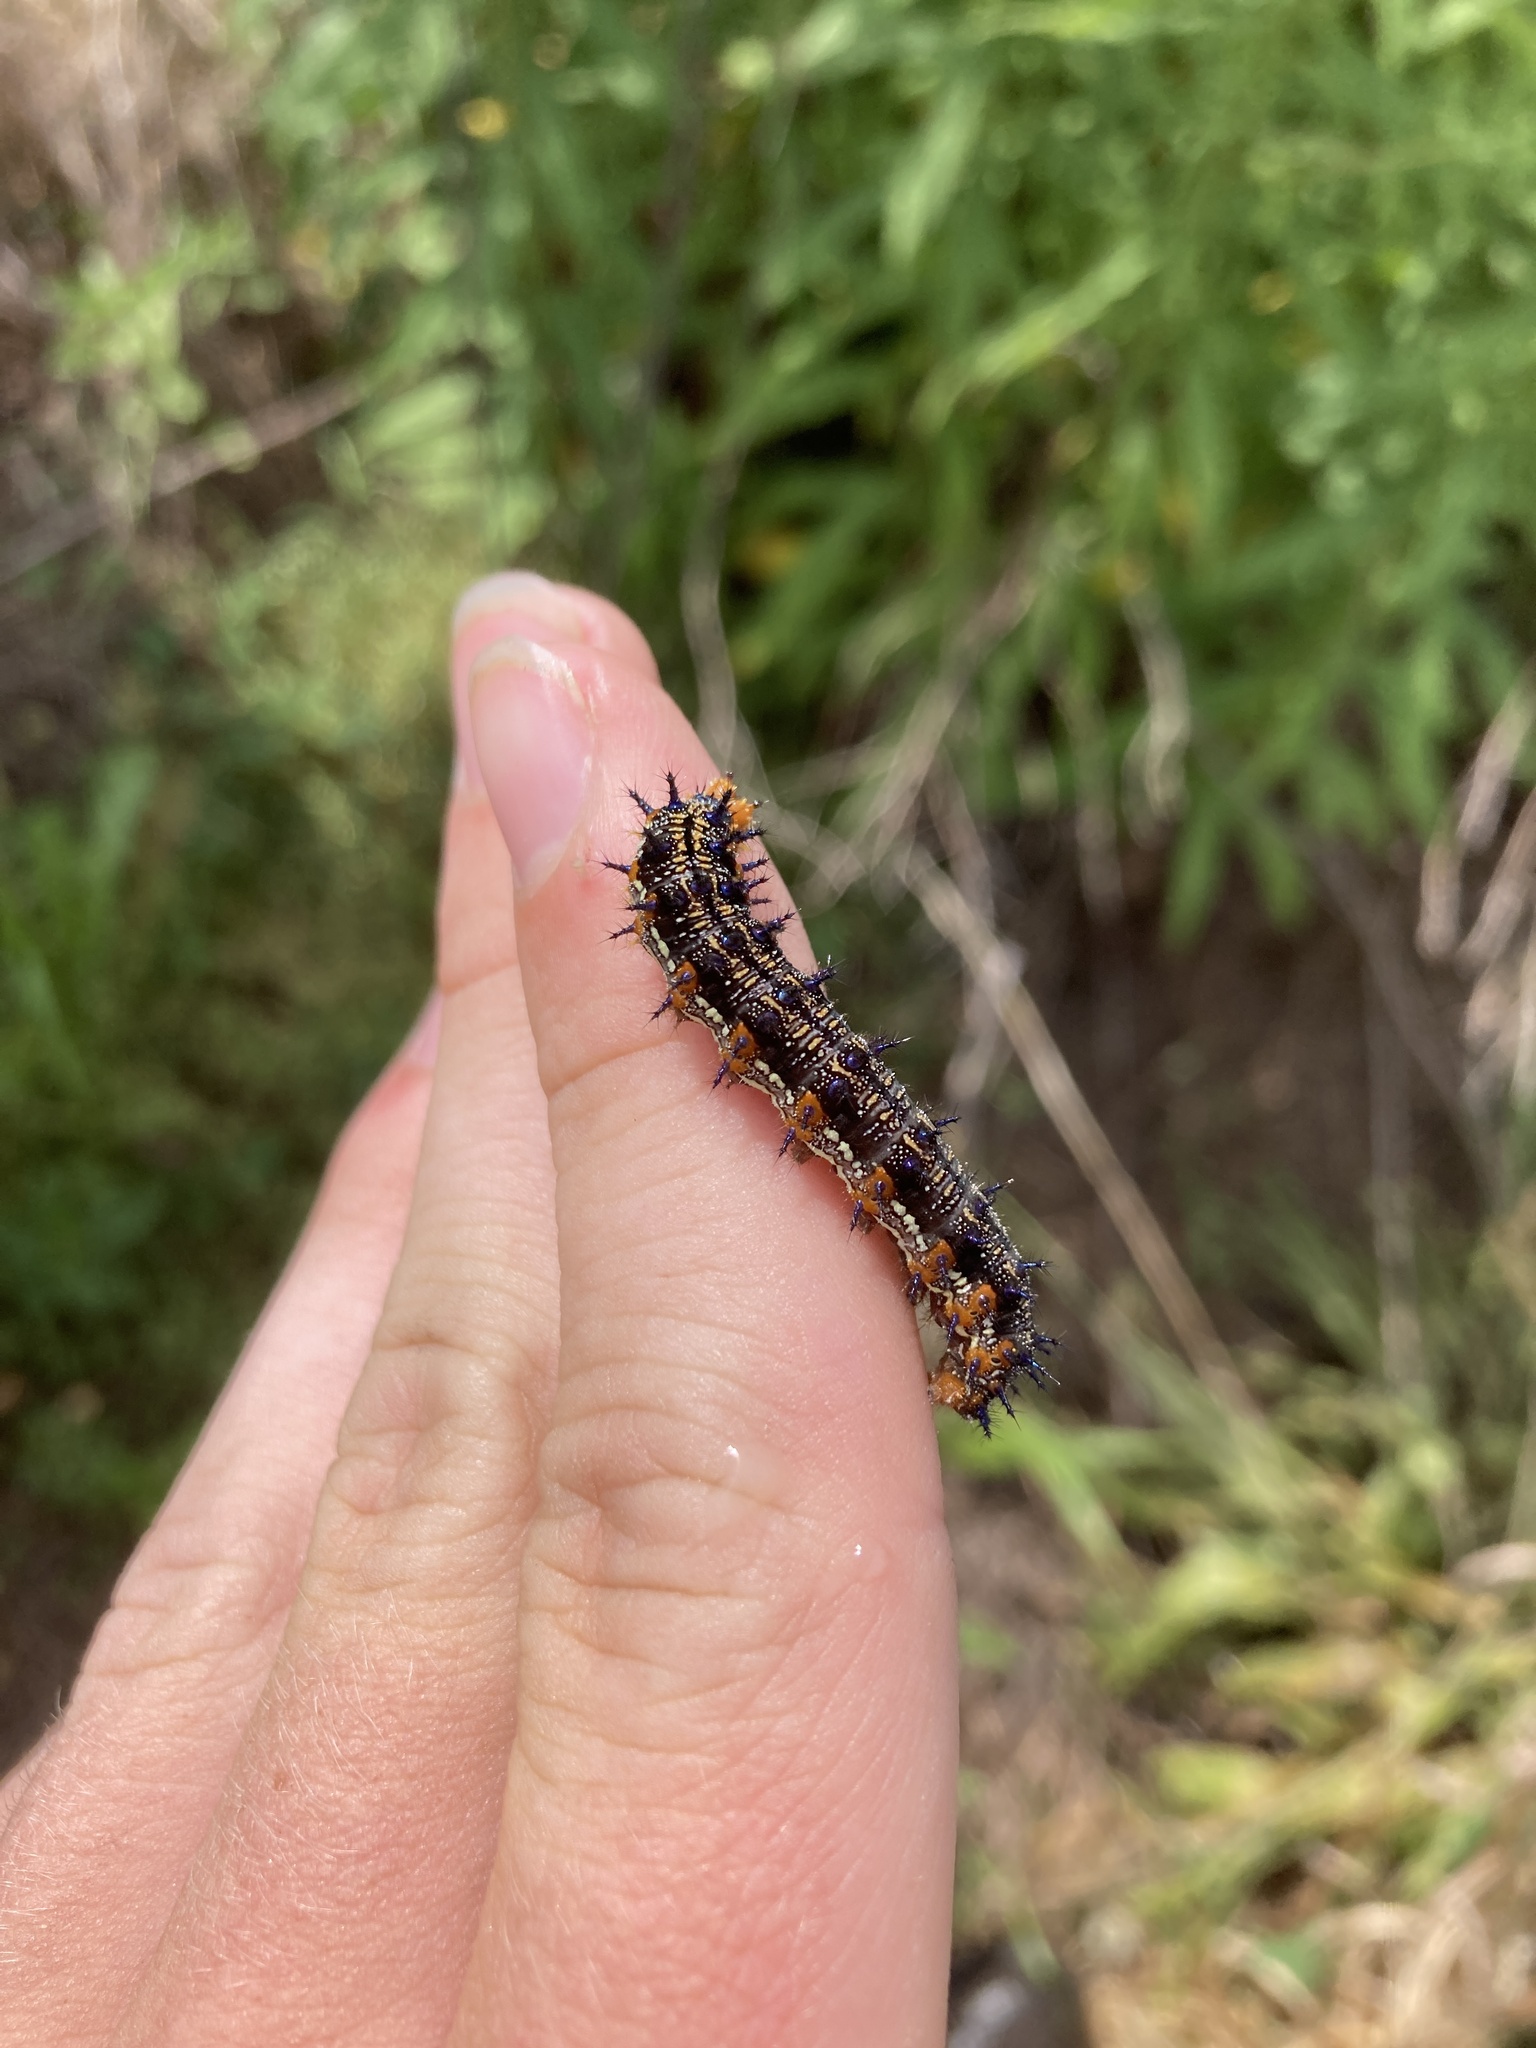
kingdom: Animalia
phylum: Arthropoda
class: Insecta
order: Lepidoptera
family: Nymphalidae
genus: Junonia
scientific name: Junonia coenia
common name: Common buckeye
